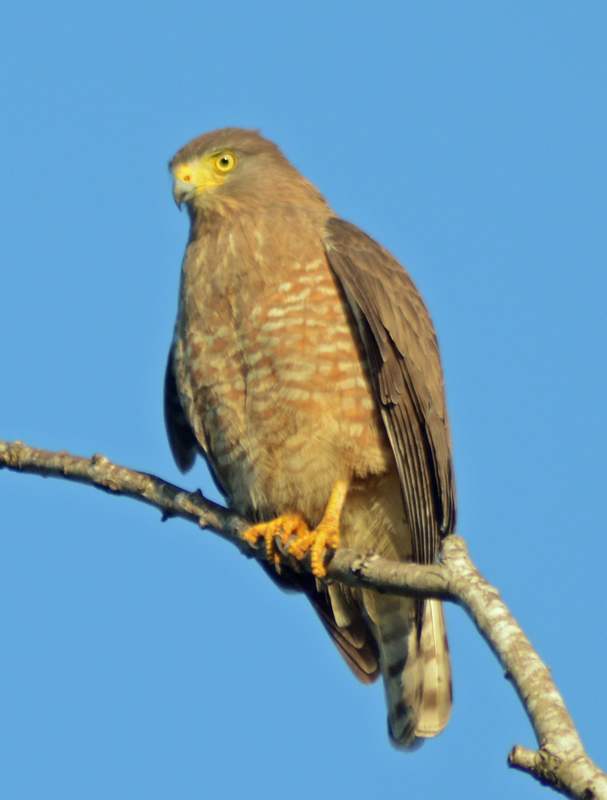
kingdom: Animalia
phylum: Chordata
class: Aves
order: Accipitriformes
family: Accipitridae
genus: Rupornis
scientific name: Rupornis magnirostris
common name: Roadside hawk
